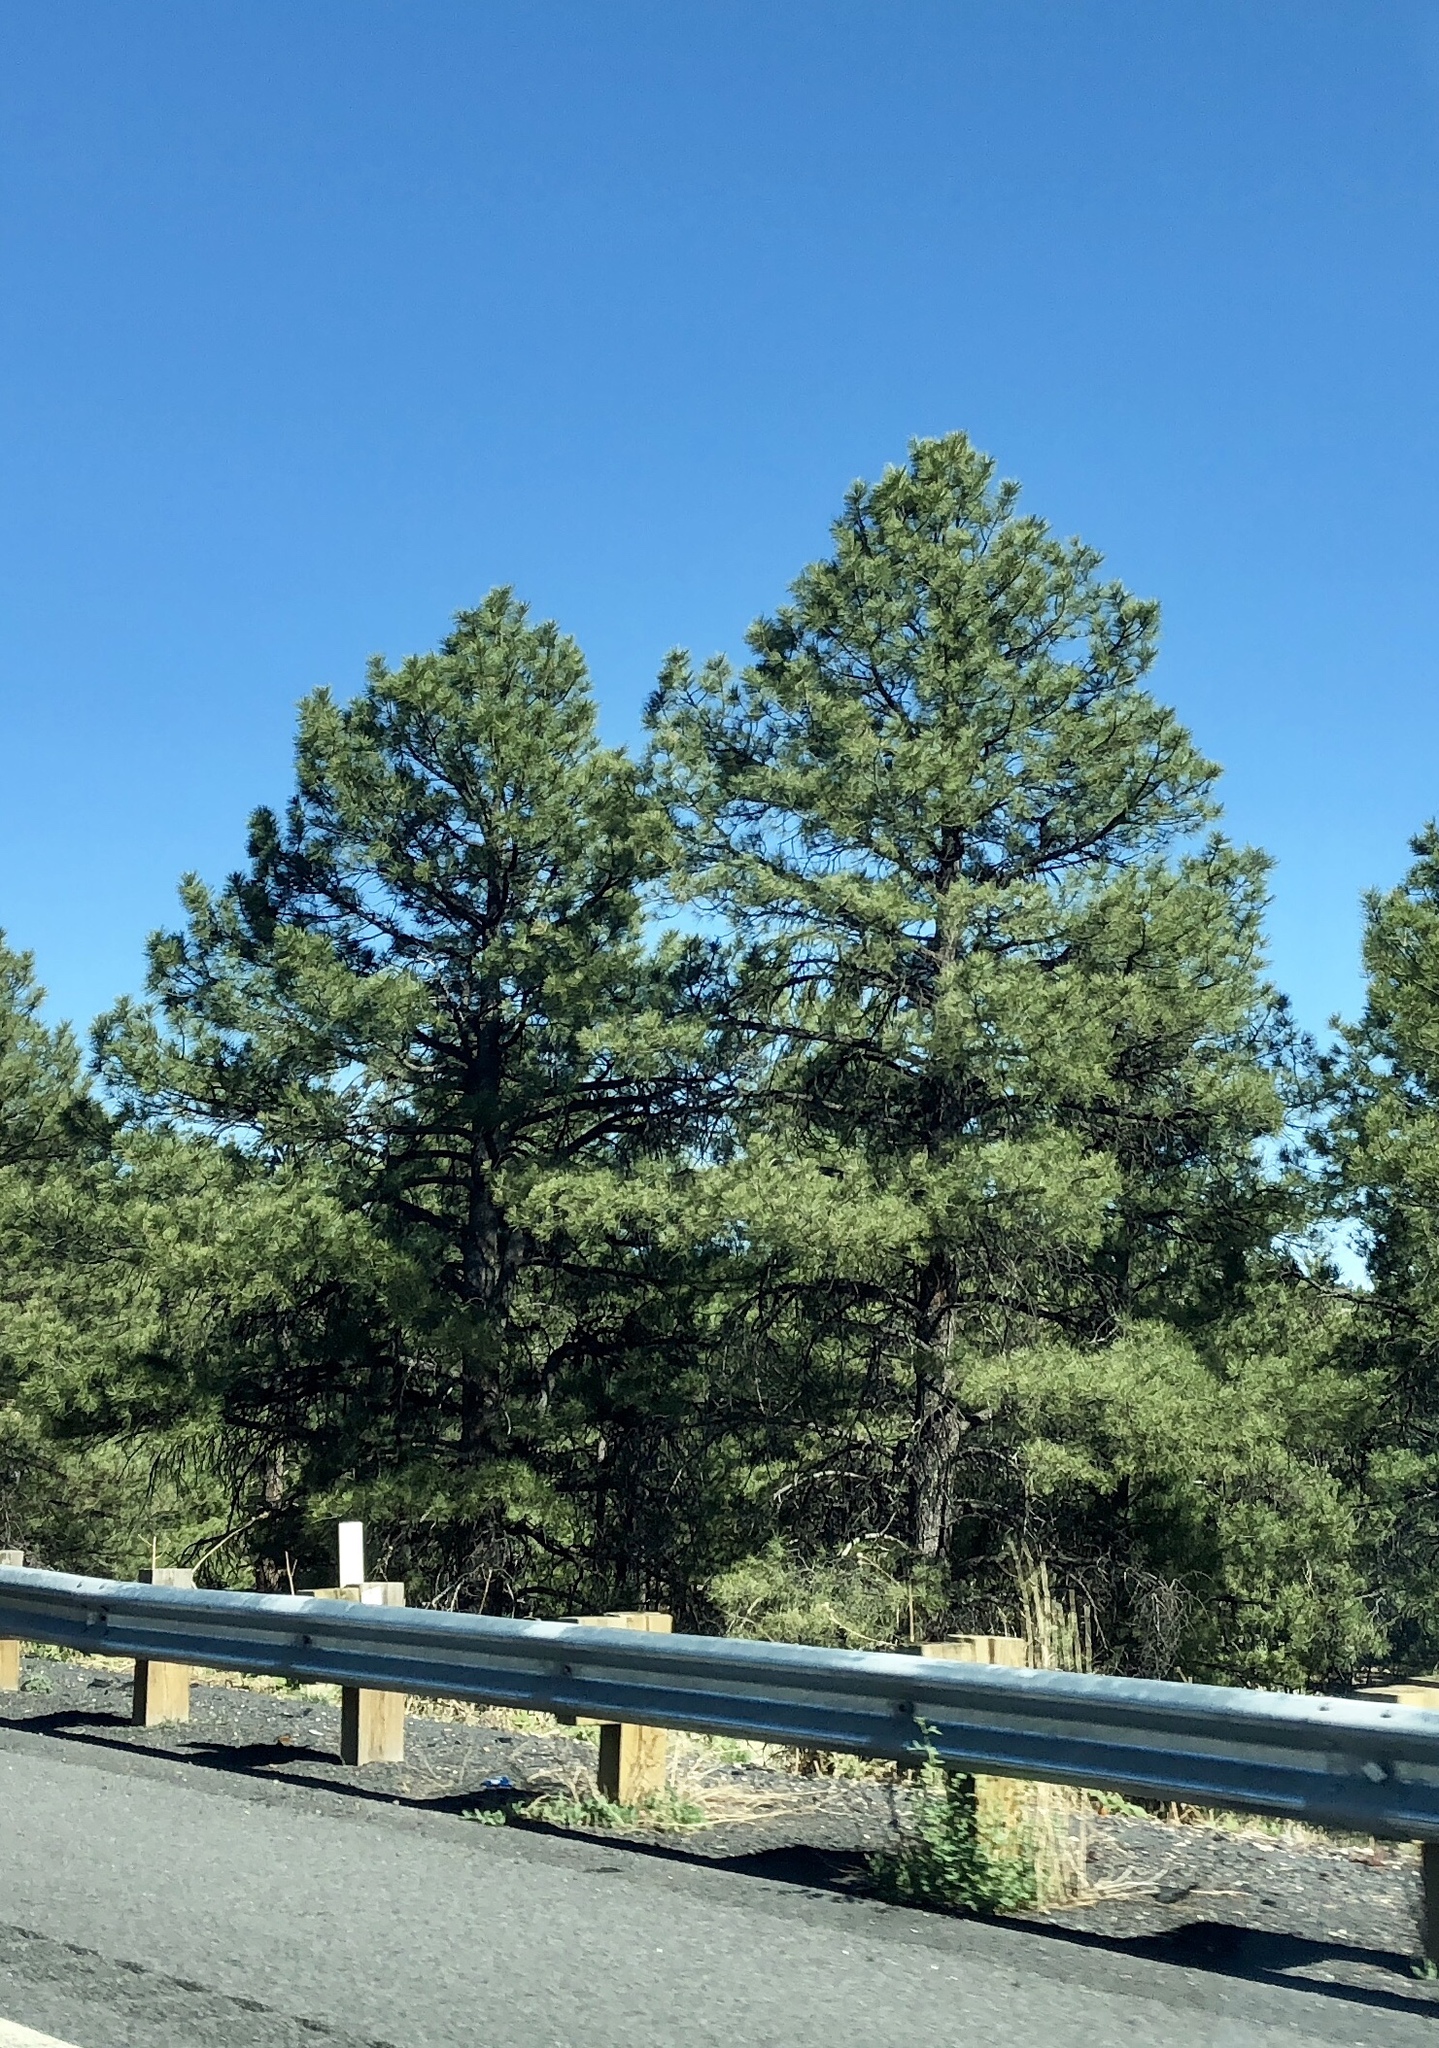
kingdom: Plantae
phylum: Tracheophyta
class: Pinopsida
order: Pinales
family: Pinaceae
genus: Pinus
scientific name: Pinus ponderosa
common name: Western yellow-pine
